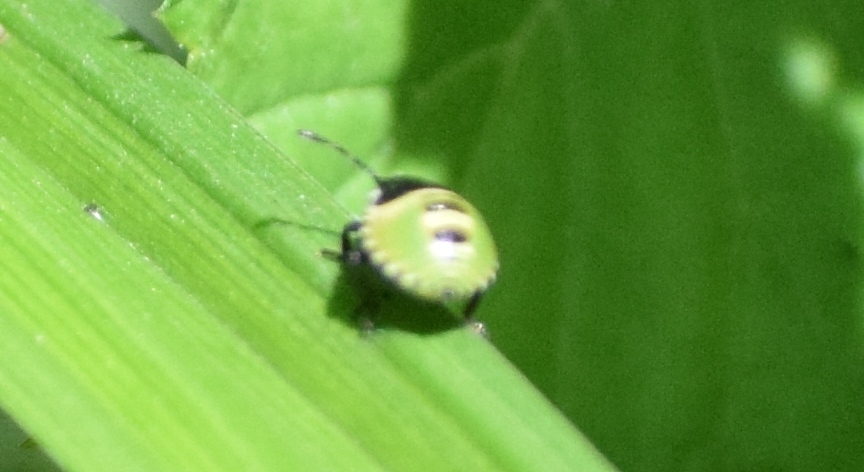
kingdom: Animalia
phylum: Arthropoda
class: Insecta
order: Hemiptera
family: Pentatomidae
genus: Palomena
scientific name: Palomena prasina
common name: Green shieldbug
